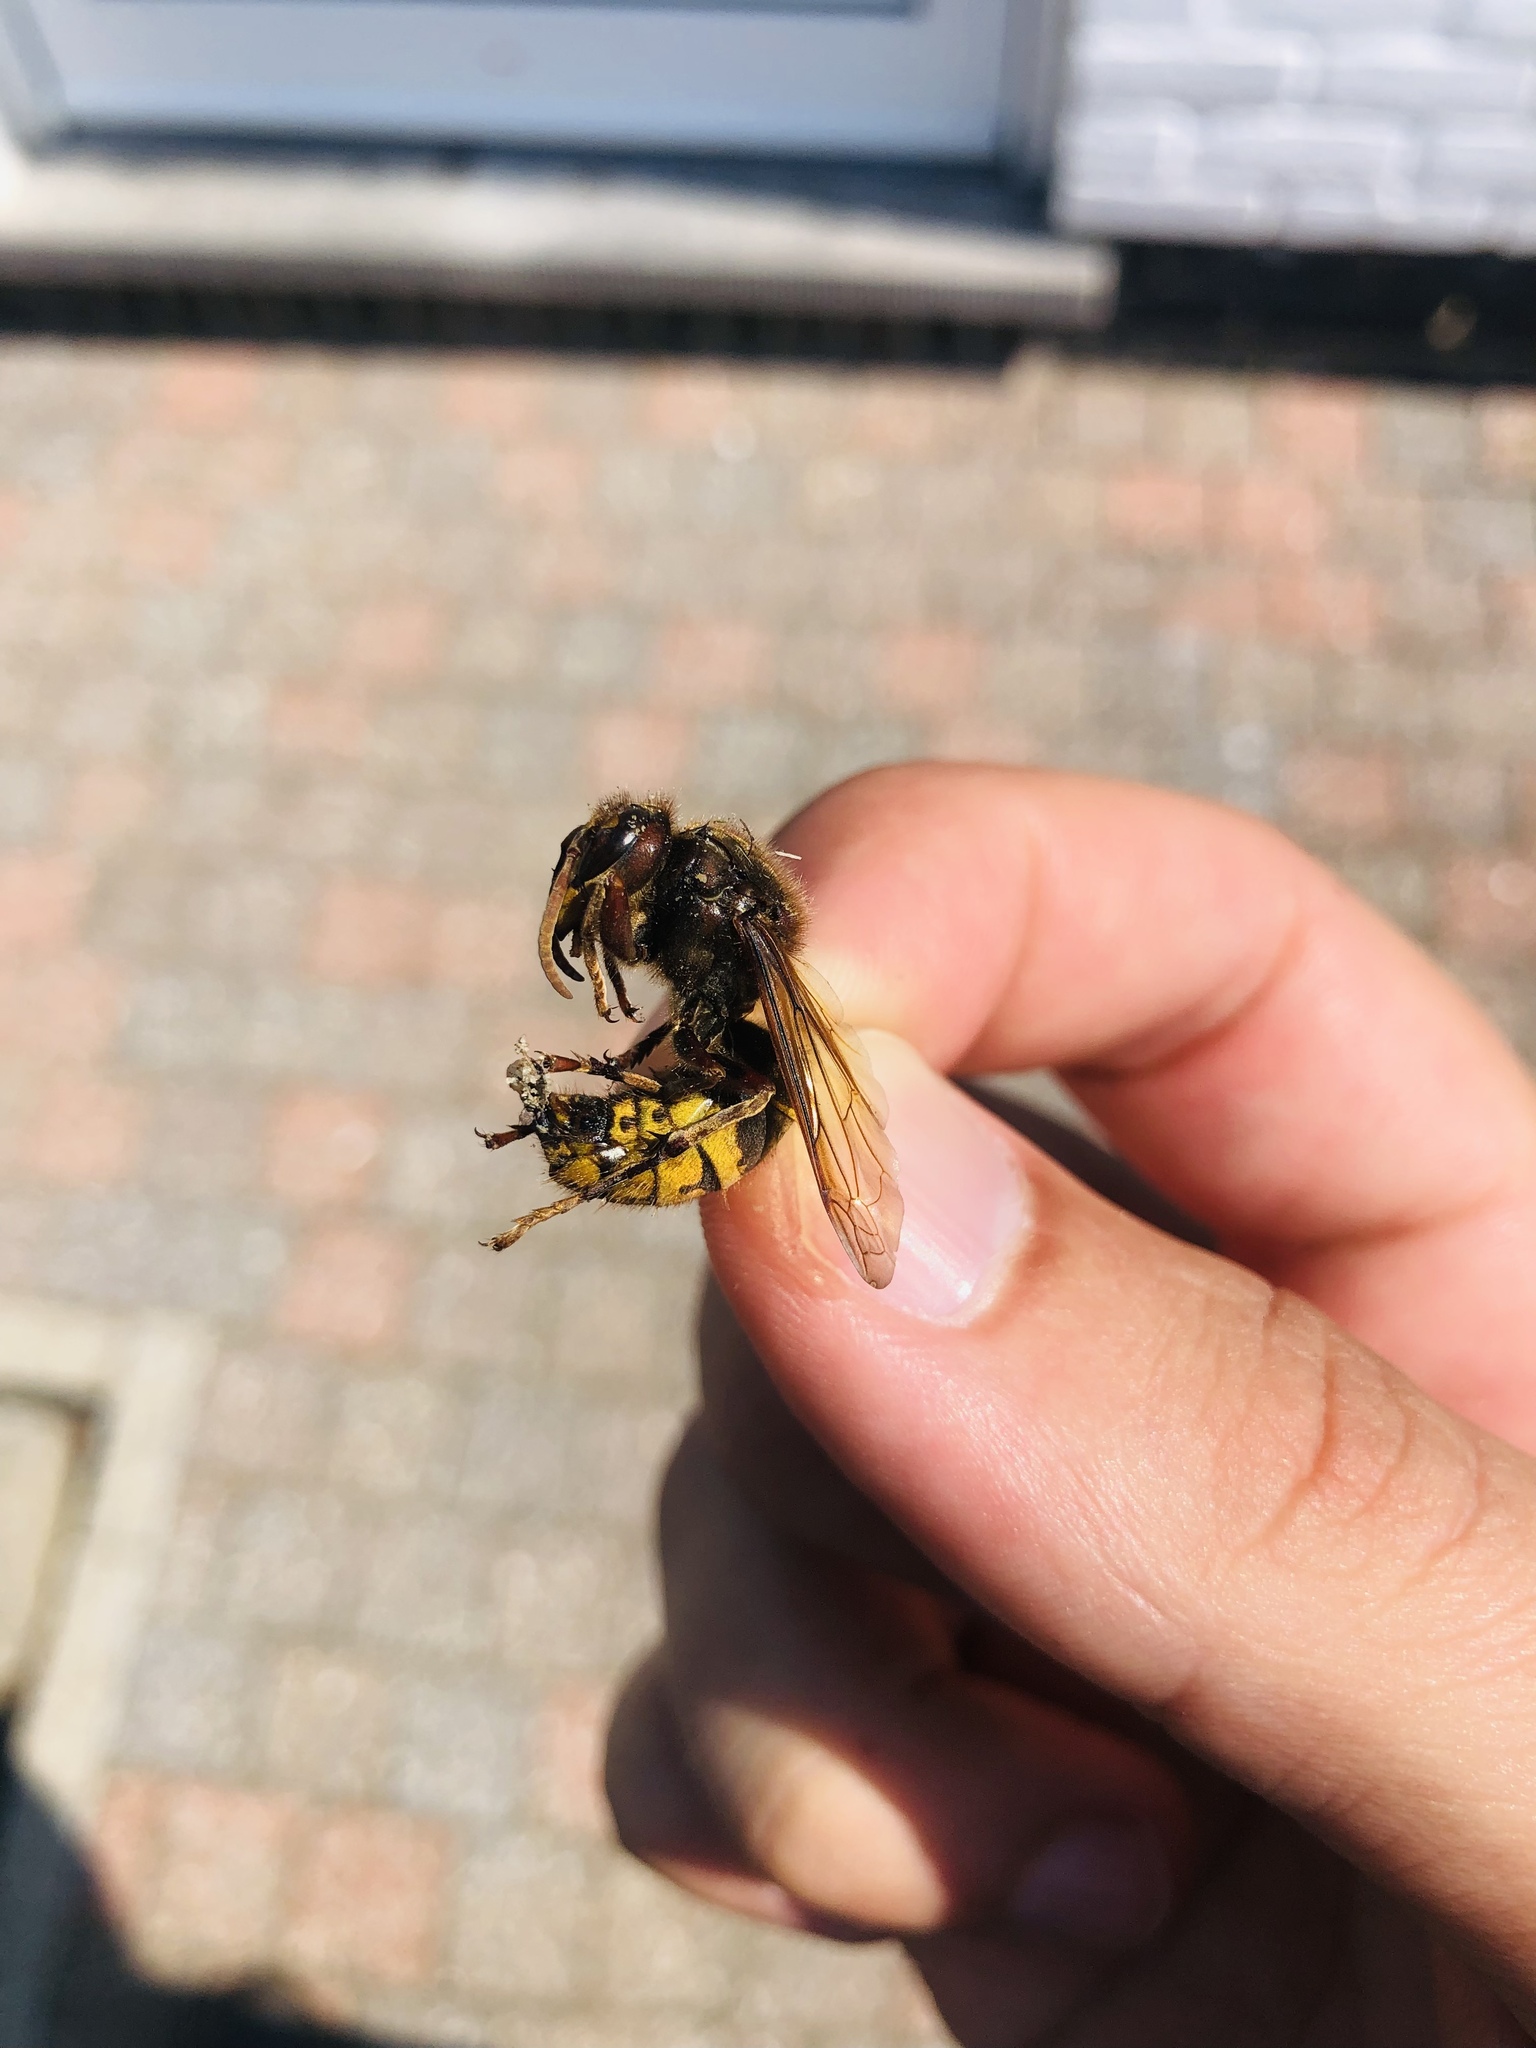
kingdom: Animalia
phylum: Arthropoda
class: Insecta
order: Hymenoptera
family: Vespidae
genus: Vespa
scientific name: Vespa crabro
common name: Hornet
